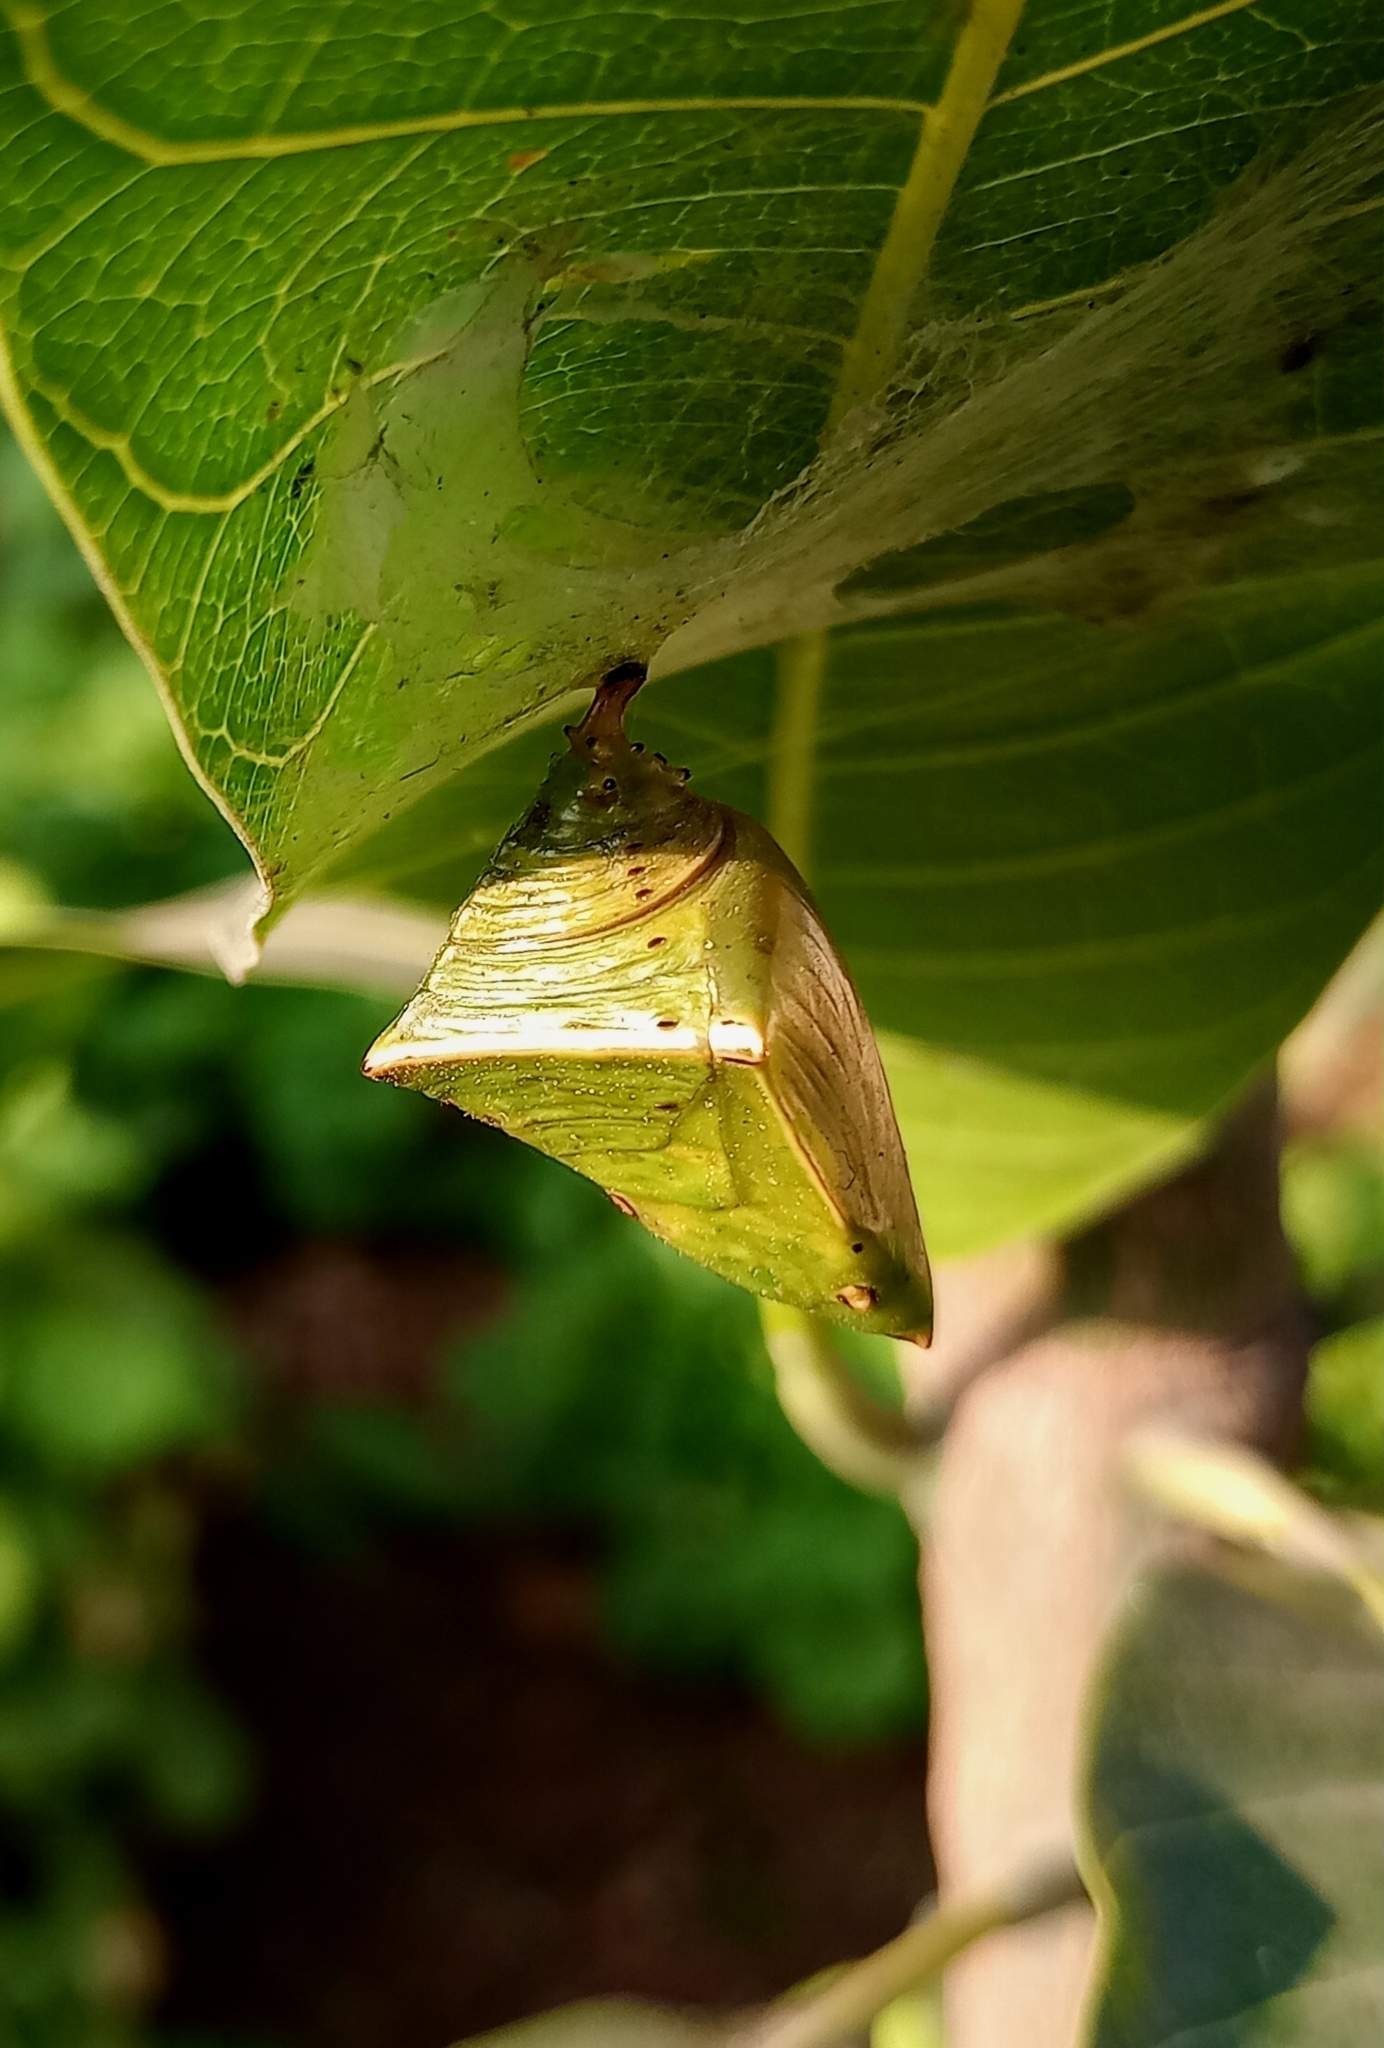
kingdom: Animalia
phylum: Arthropoda
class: Insecta
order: Lepidoptera
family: Nymphalidae
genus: Euthalia
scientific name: Euthalia aconthea
